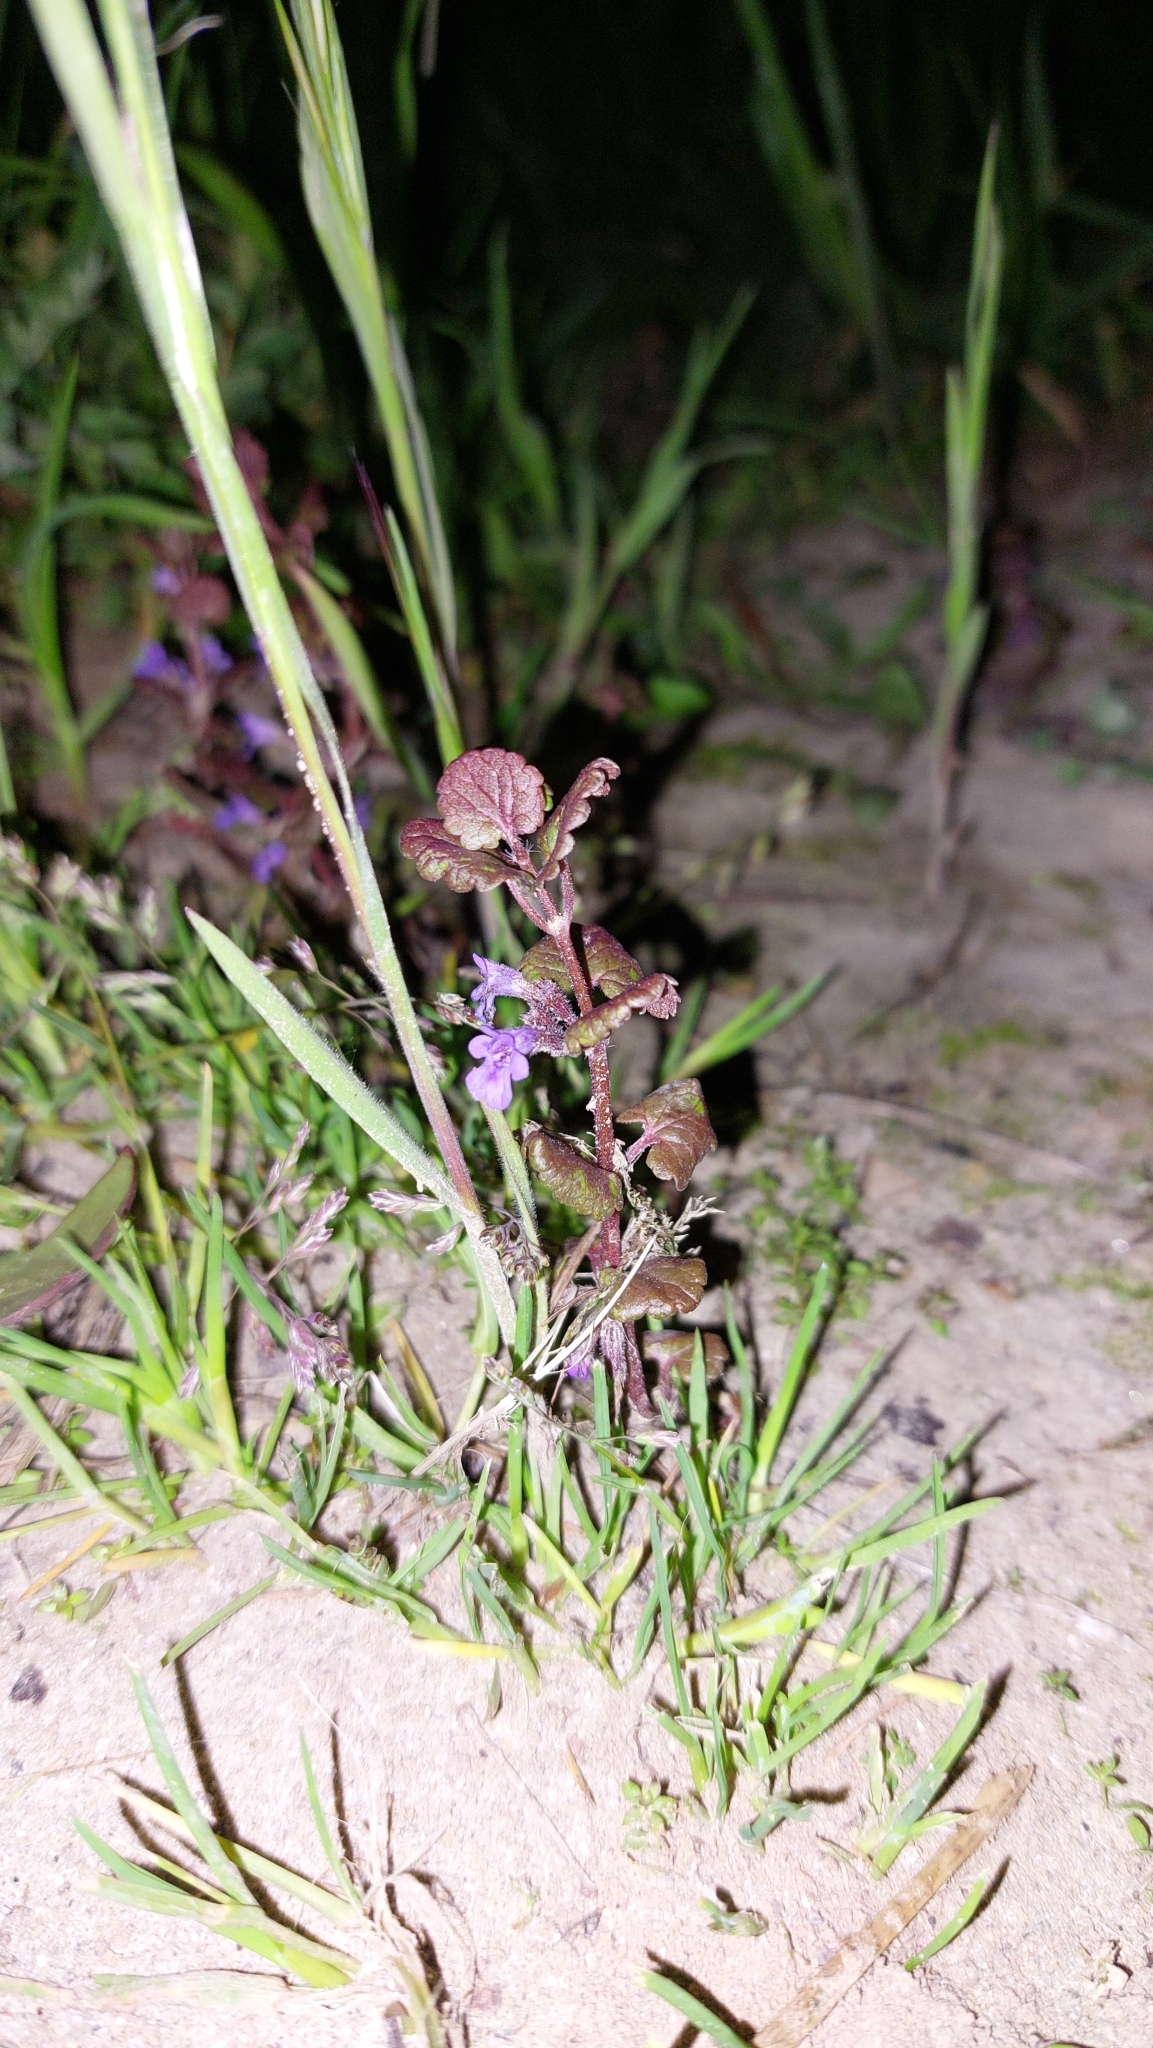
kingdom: Plantae
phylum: Tracheophyta
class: Magnoliopsida
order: Lamiales
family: Lamiaceae
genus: Glechoma
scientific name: Glechoma hederacea
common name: Ground ivy
